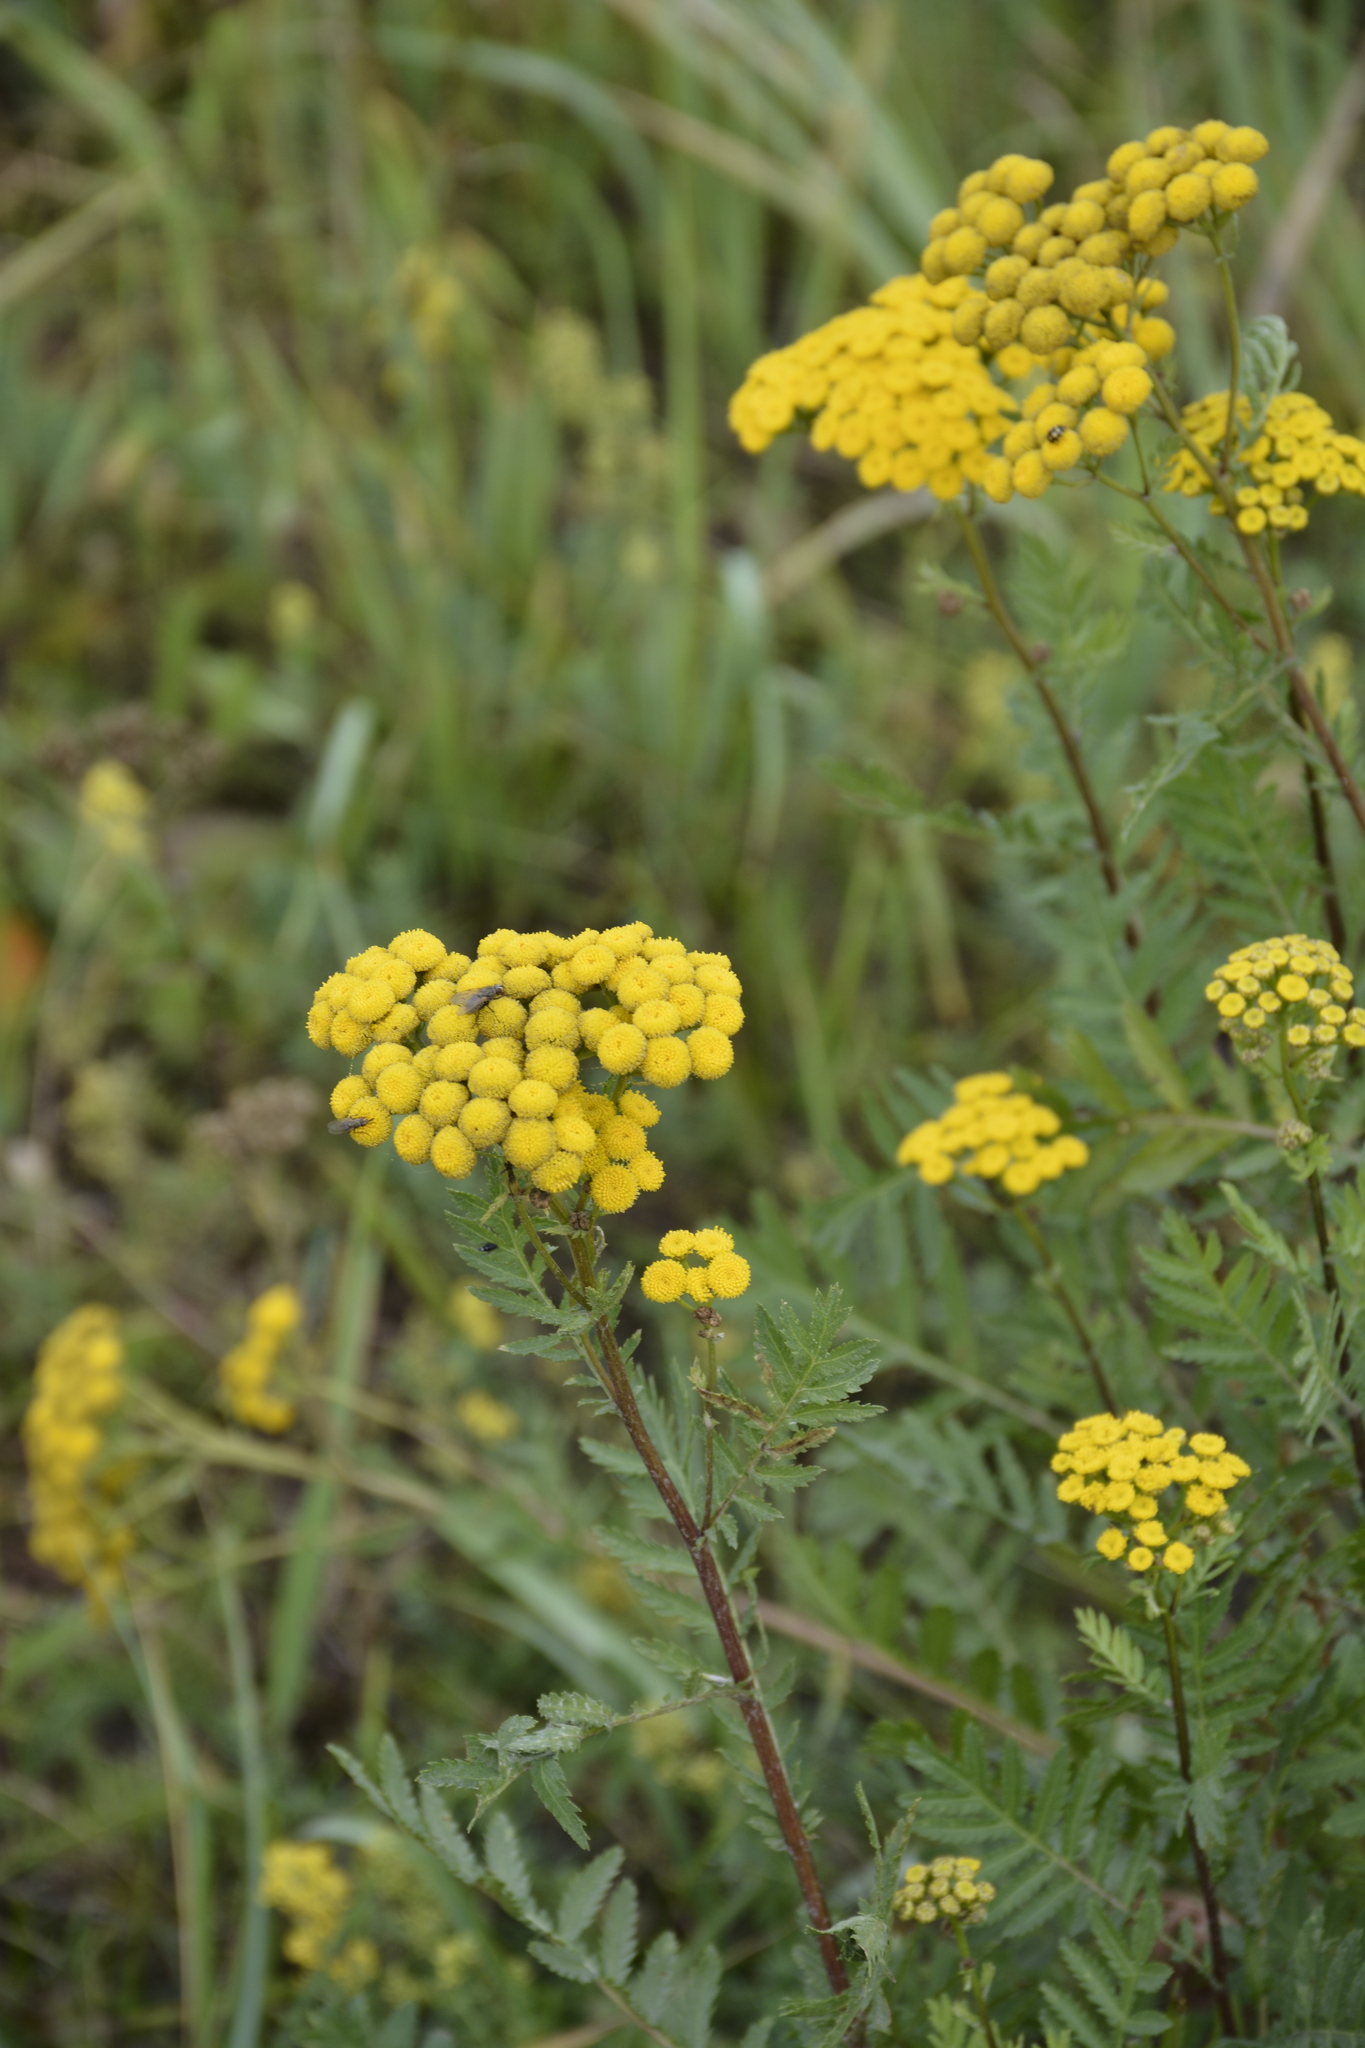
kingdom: Plantae
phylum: Tracheophyta
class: Magnoliopsida
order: Asterales
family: Asteraceae
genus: Tanacetum
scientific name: Tanacetum vulgare
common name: Common tansy
